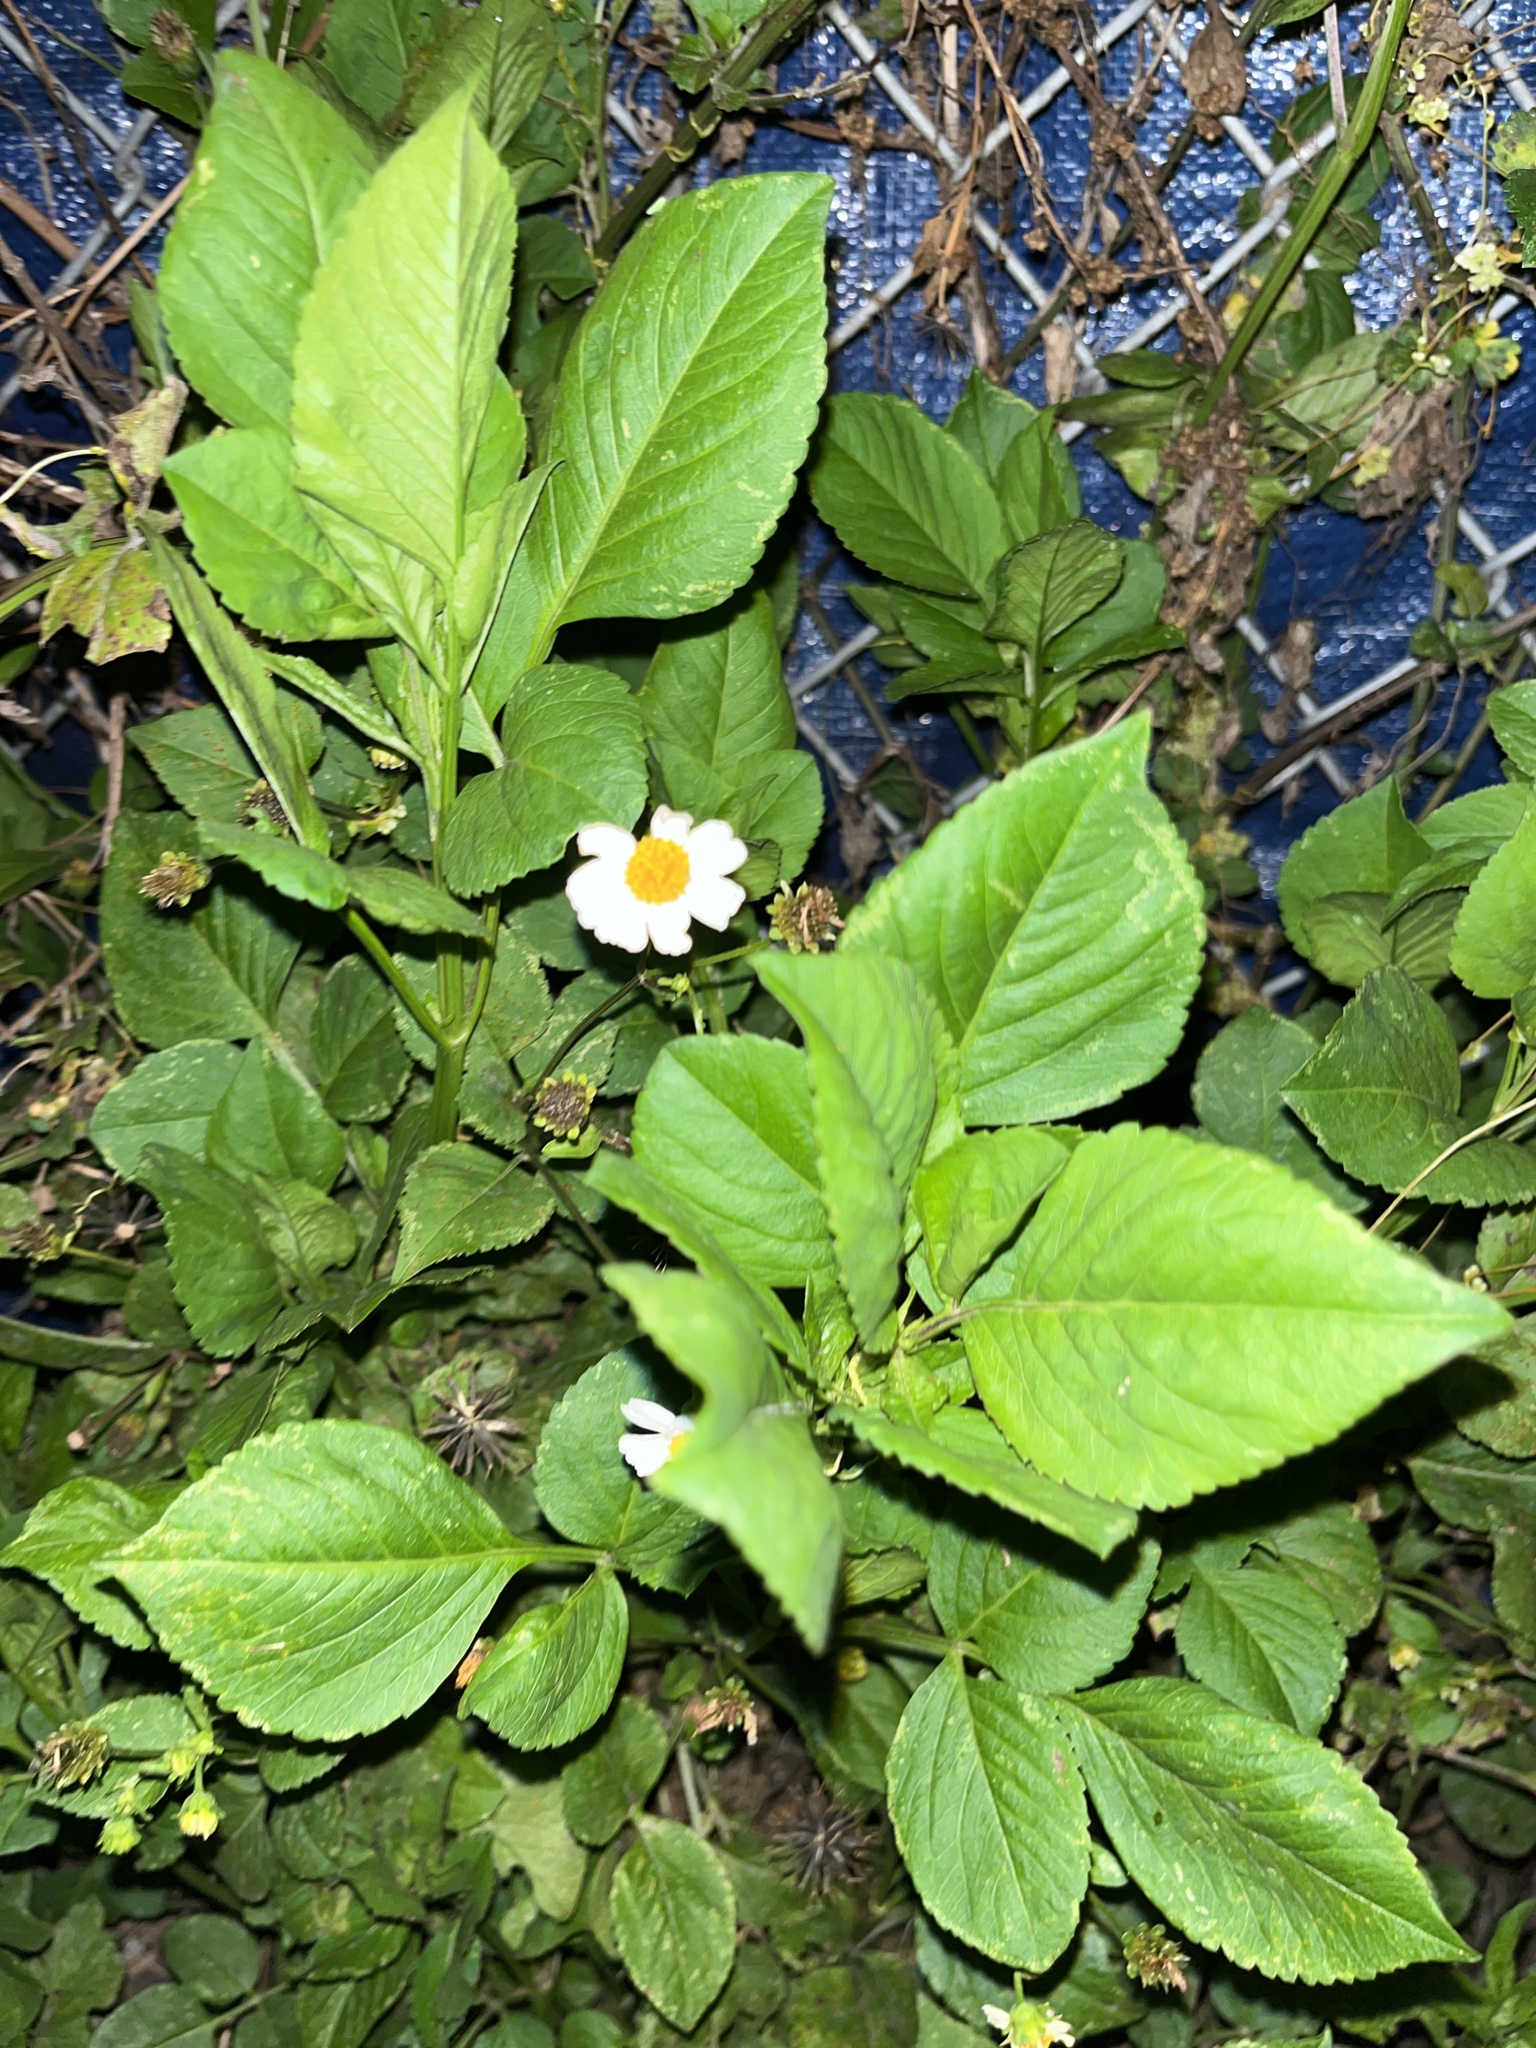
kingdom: Plantae
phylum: Tracheophyta
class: Magnoliopsida
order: Asterales
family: Asteraceae
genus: Bidens
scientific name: Bidens alba
